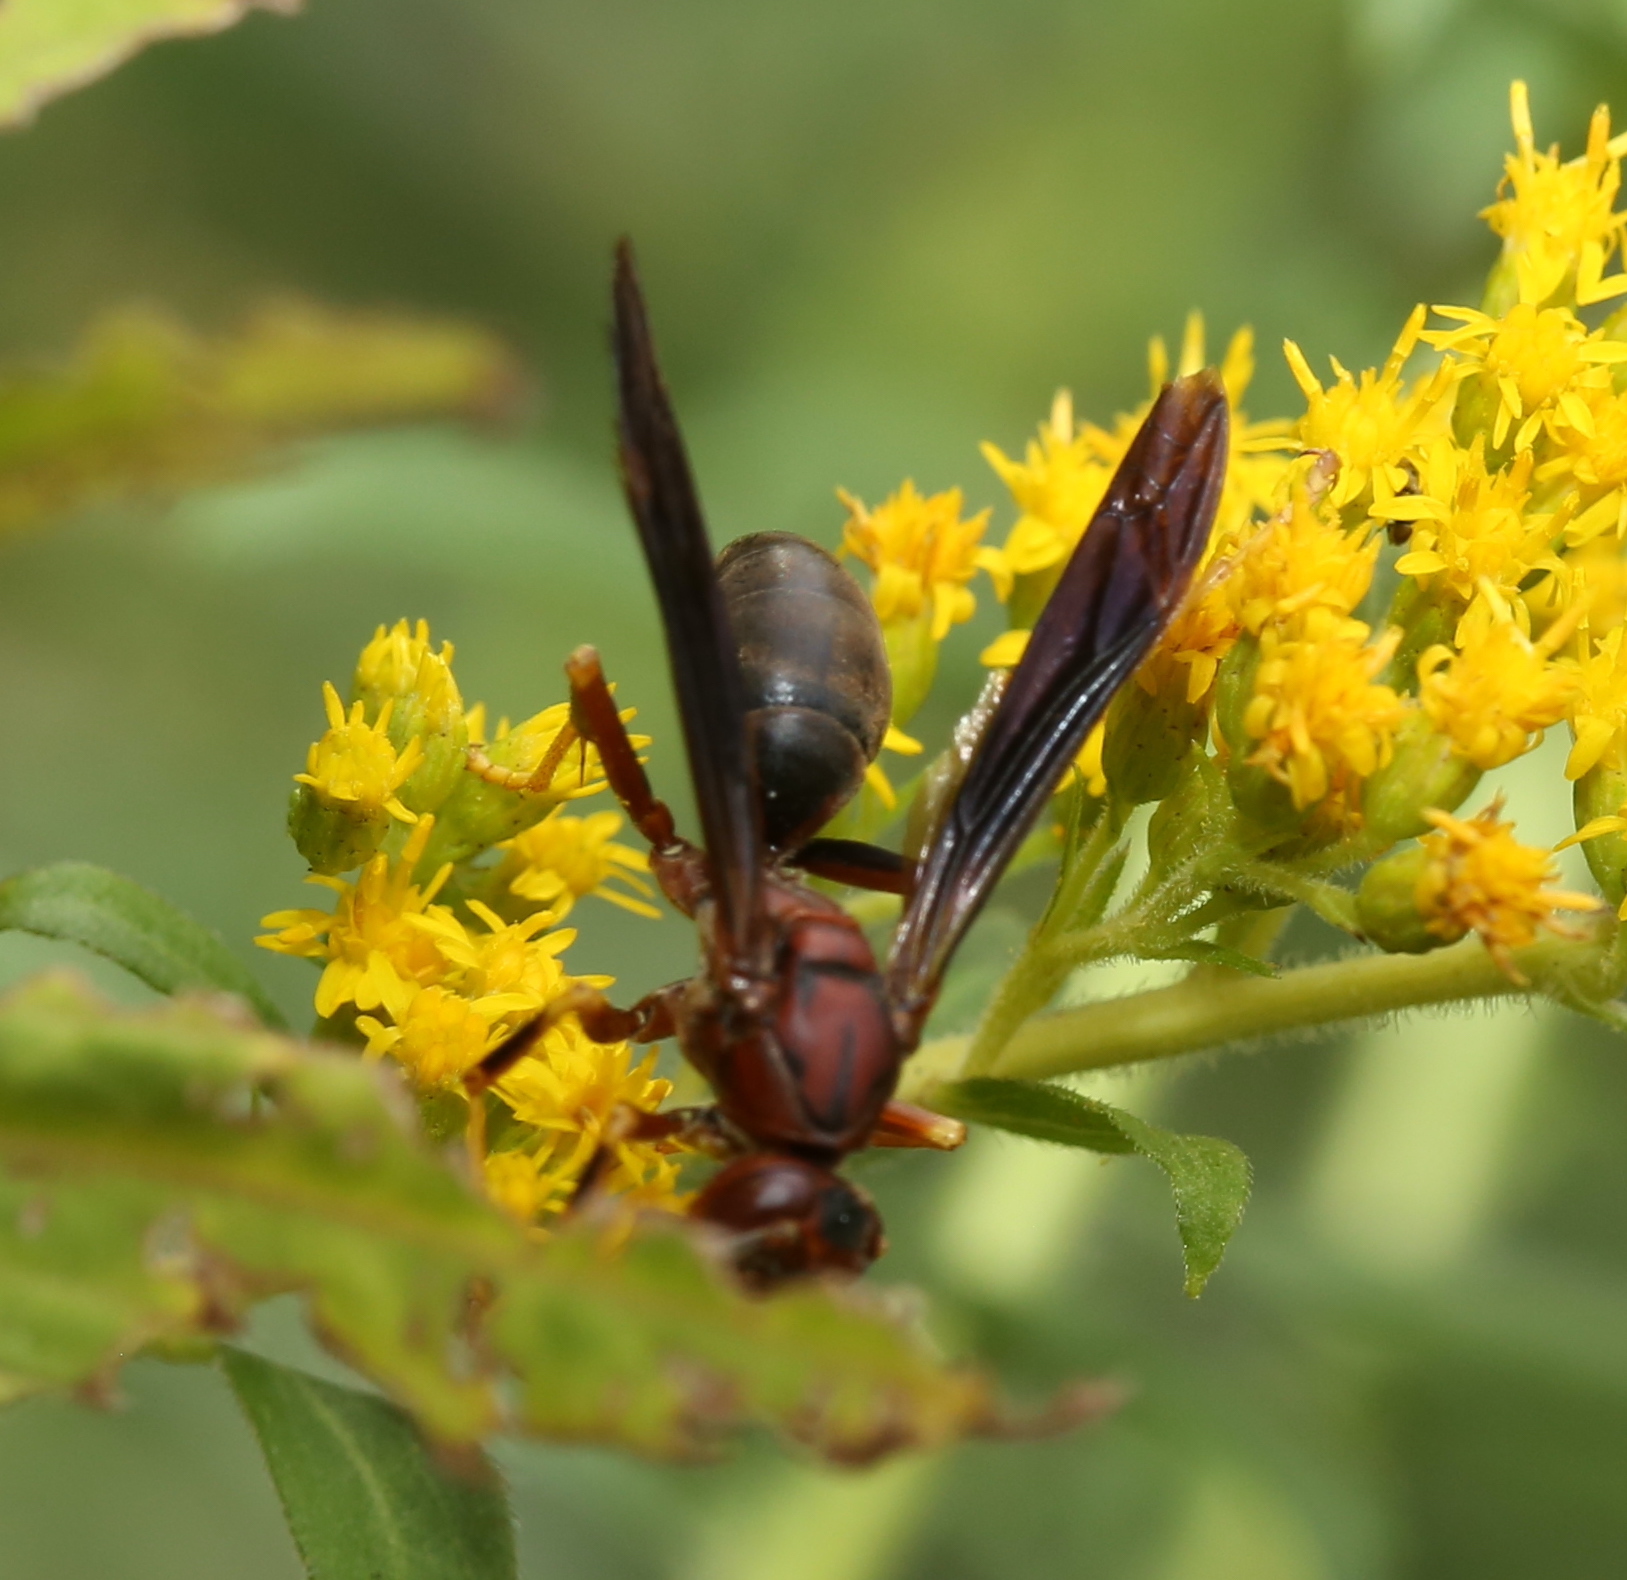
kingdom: Animalia
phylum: Arthropoda
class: Insecta
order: Hymenoptera
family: Eumenidae
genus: Polistes
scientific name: Polistes metricus
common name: Metric paper wasp
